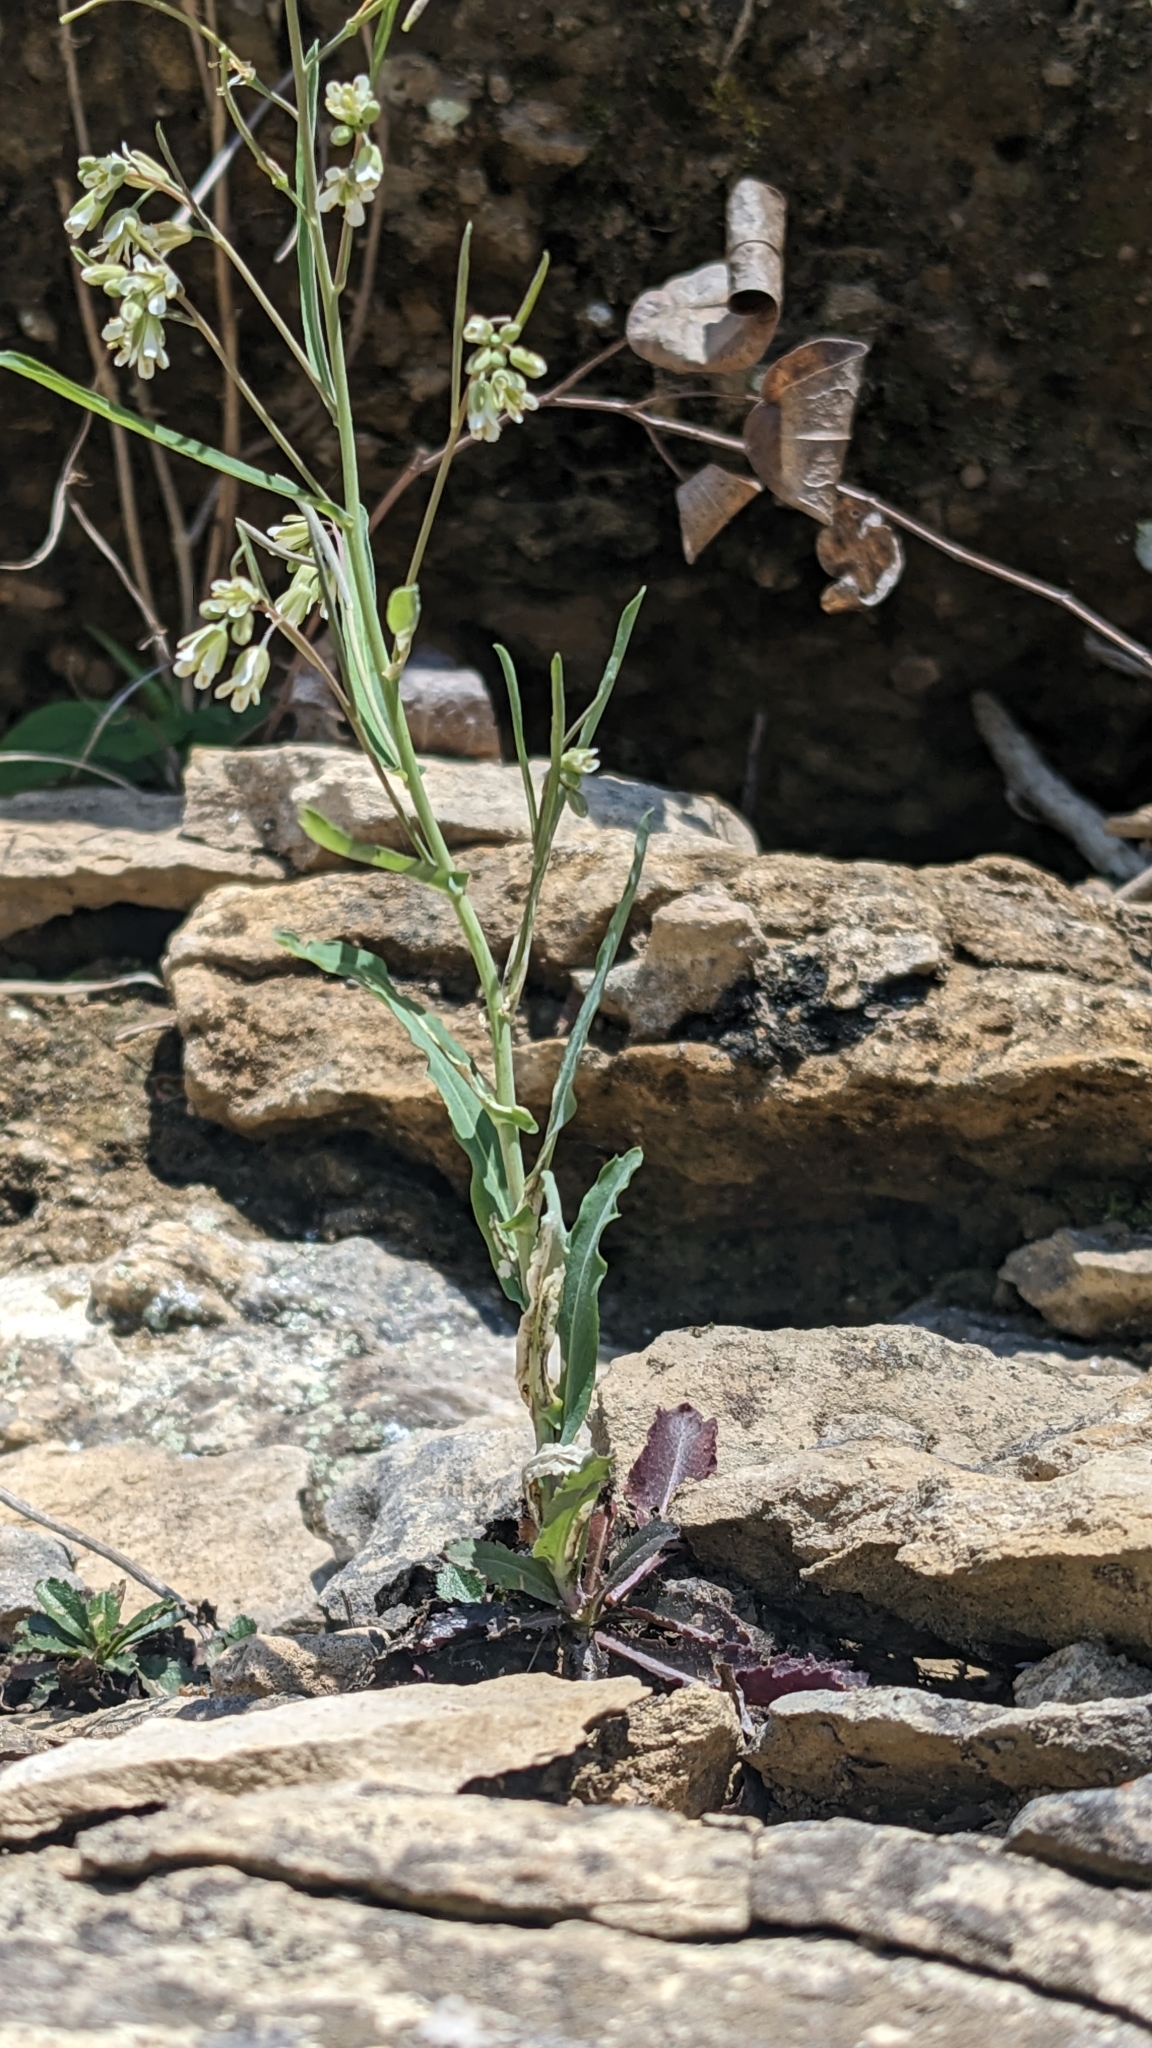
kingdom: Plantae
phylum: Tracheophyta
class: Magnoliopsida
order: Brassicales
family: Brassicaceae
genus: Borodinia
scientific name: Borodinia laevigata
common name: Smooth rockcress
